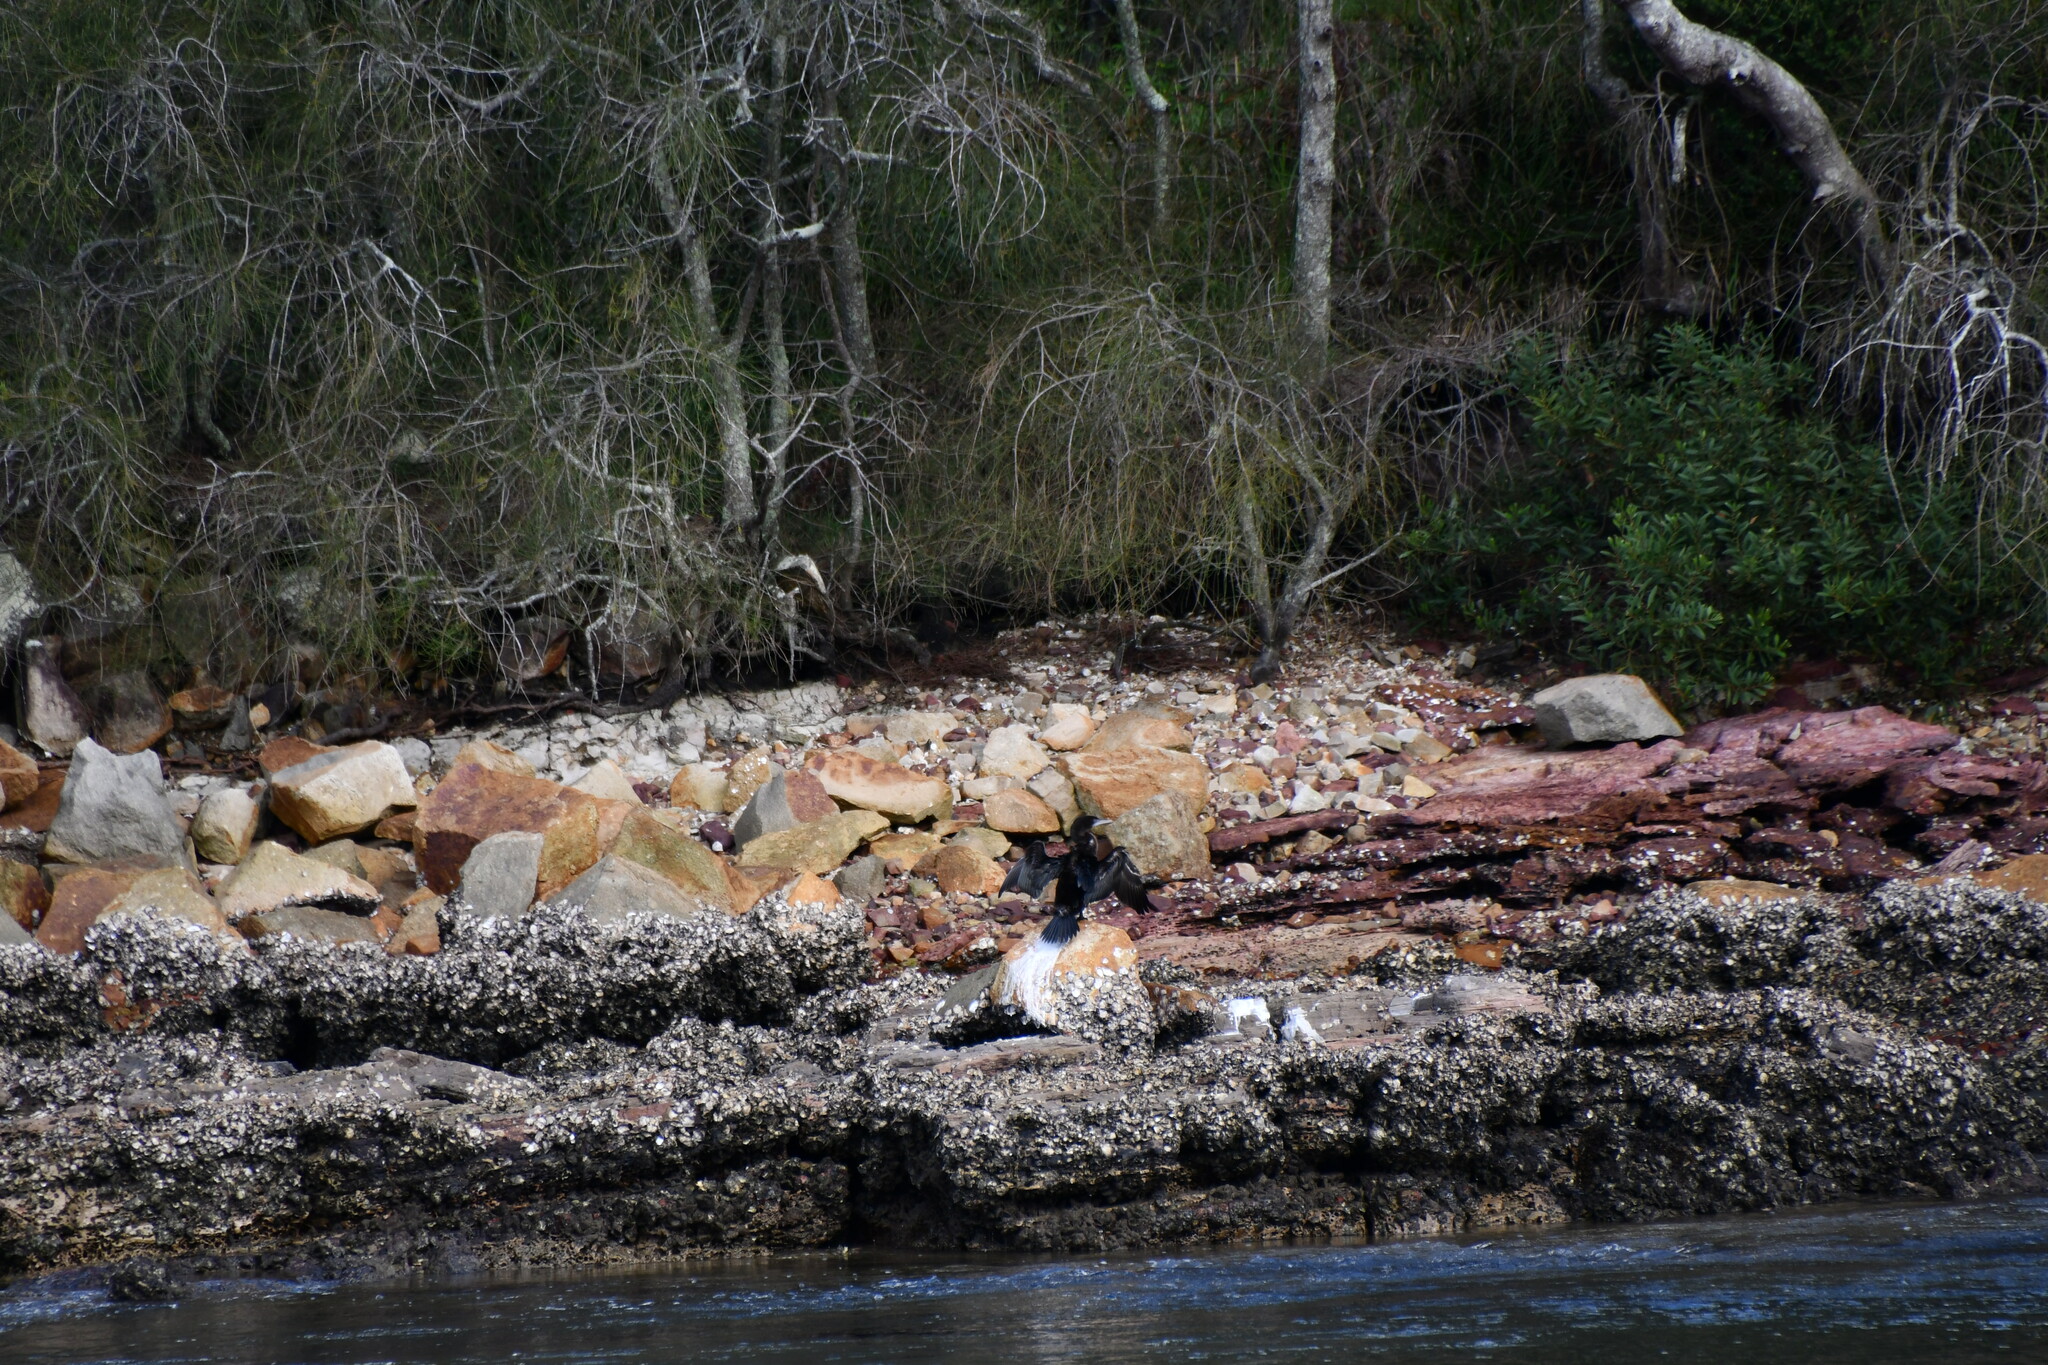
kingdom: Animalia
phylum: Chordata
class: Aves
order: Suliformes
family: Phalacrocoracidae
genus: Phalacrocorax
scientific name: Phalacrocorax sulcirostris
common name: Little black cormorant
